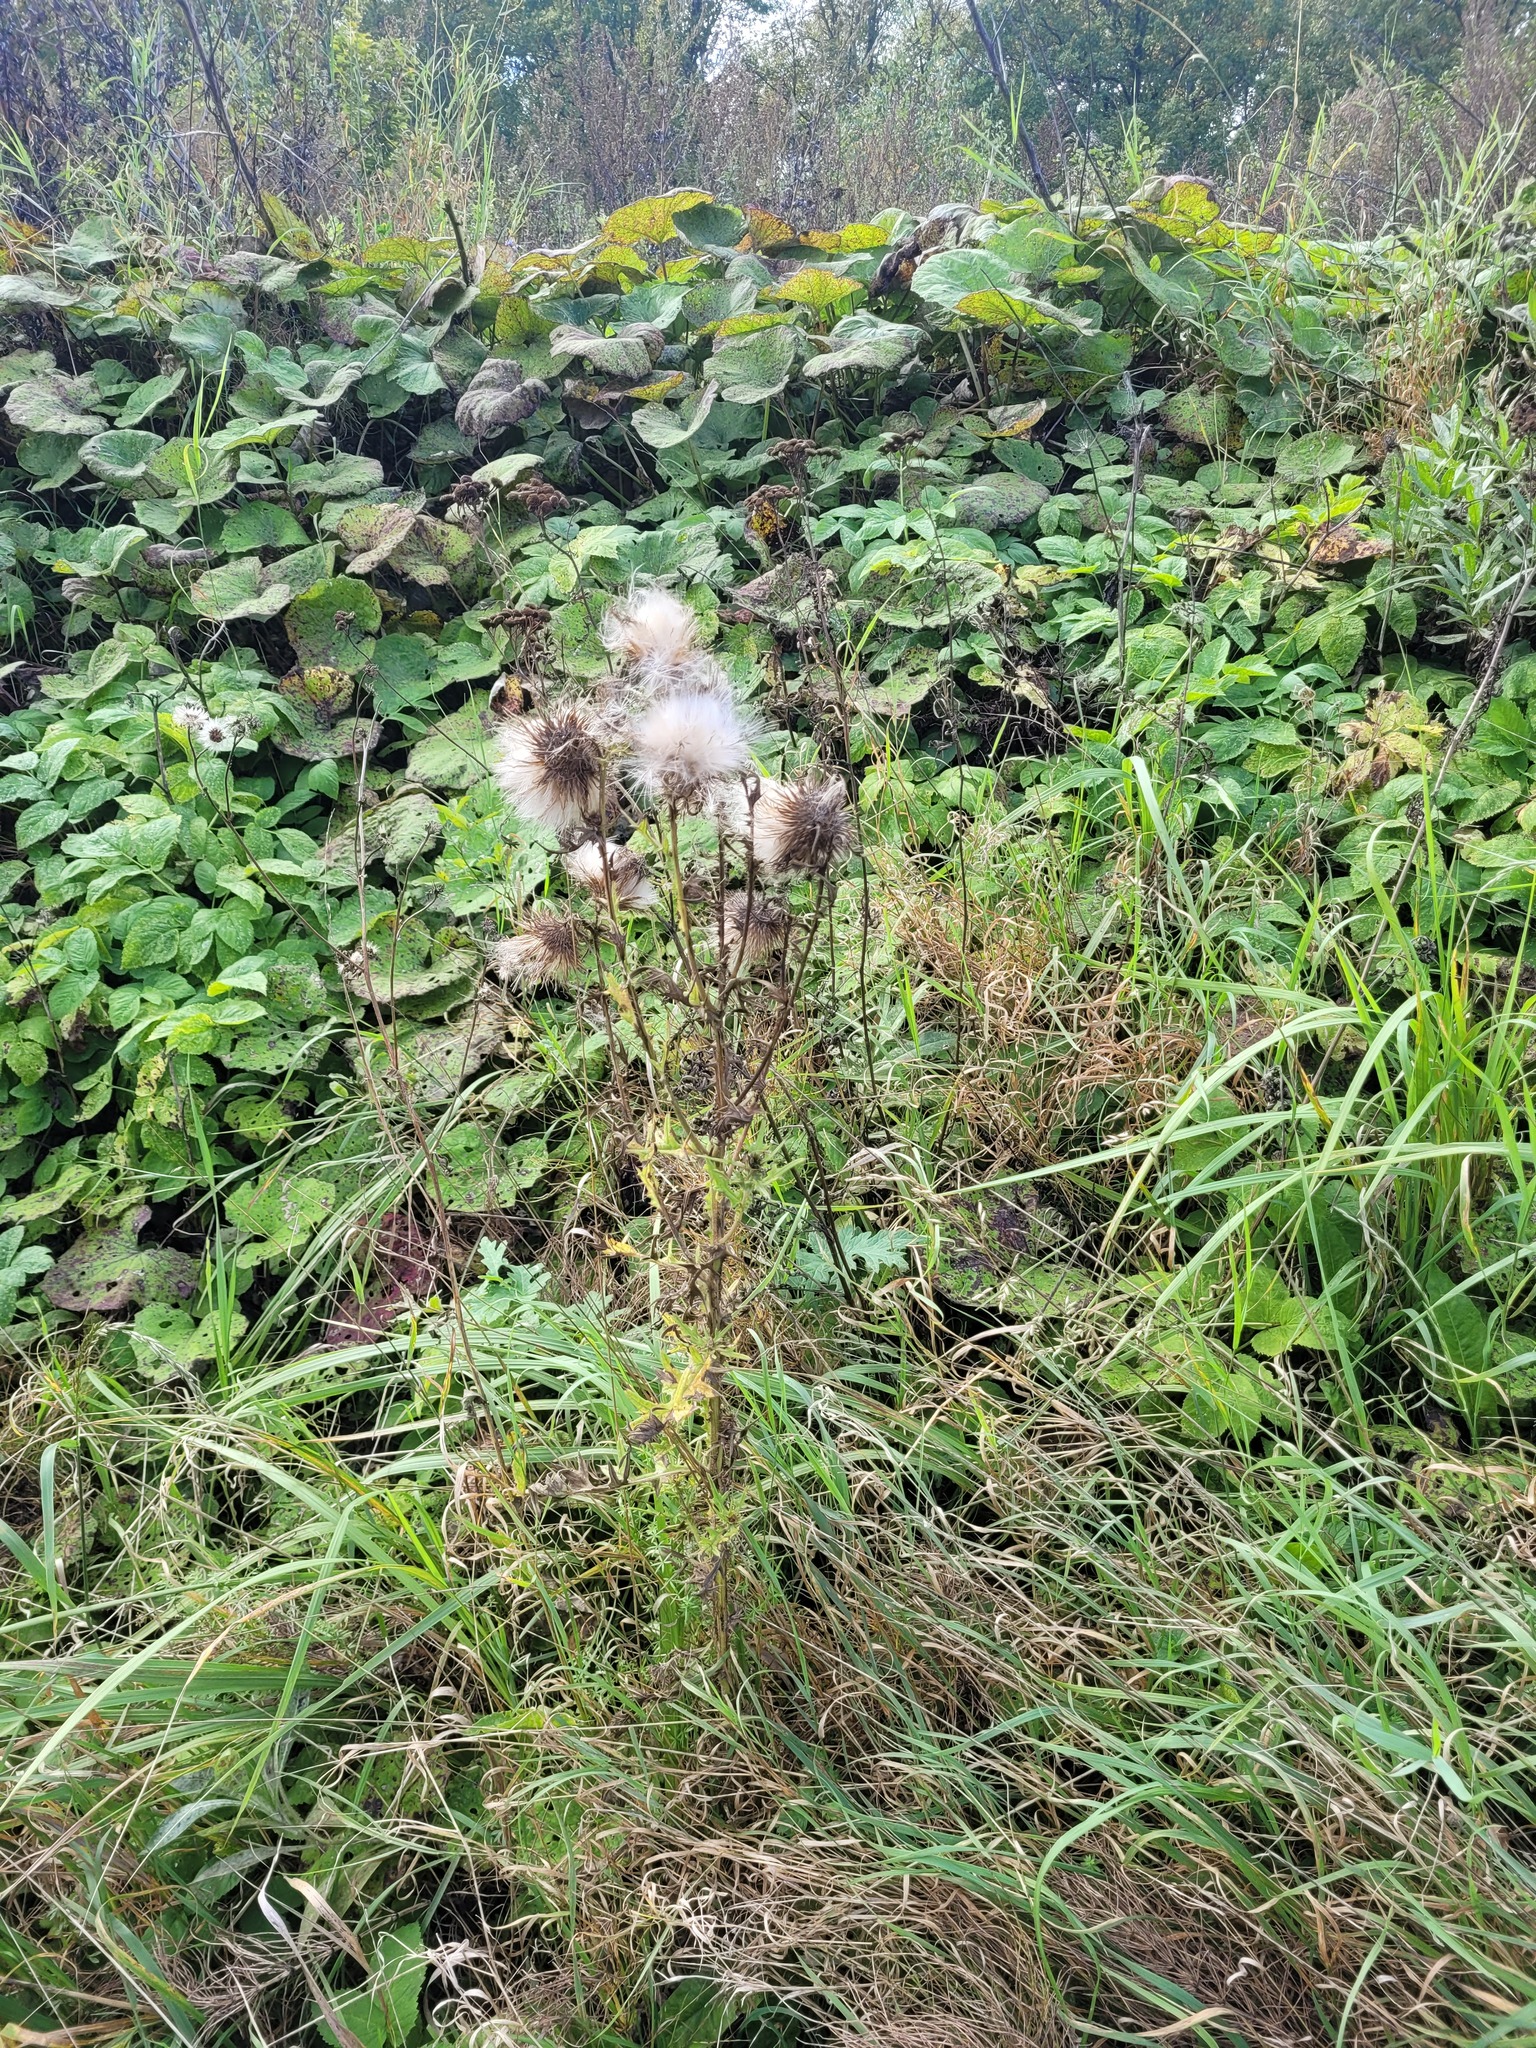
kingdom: Plantae
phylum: Tracheophyta
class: Magnoliopsida
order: Asterales
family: Asteraceae
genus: Cirsium
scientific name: Cirsium vulgare
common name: Bull thistle
